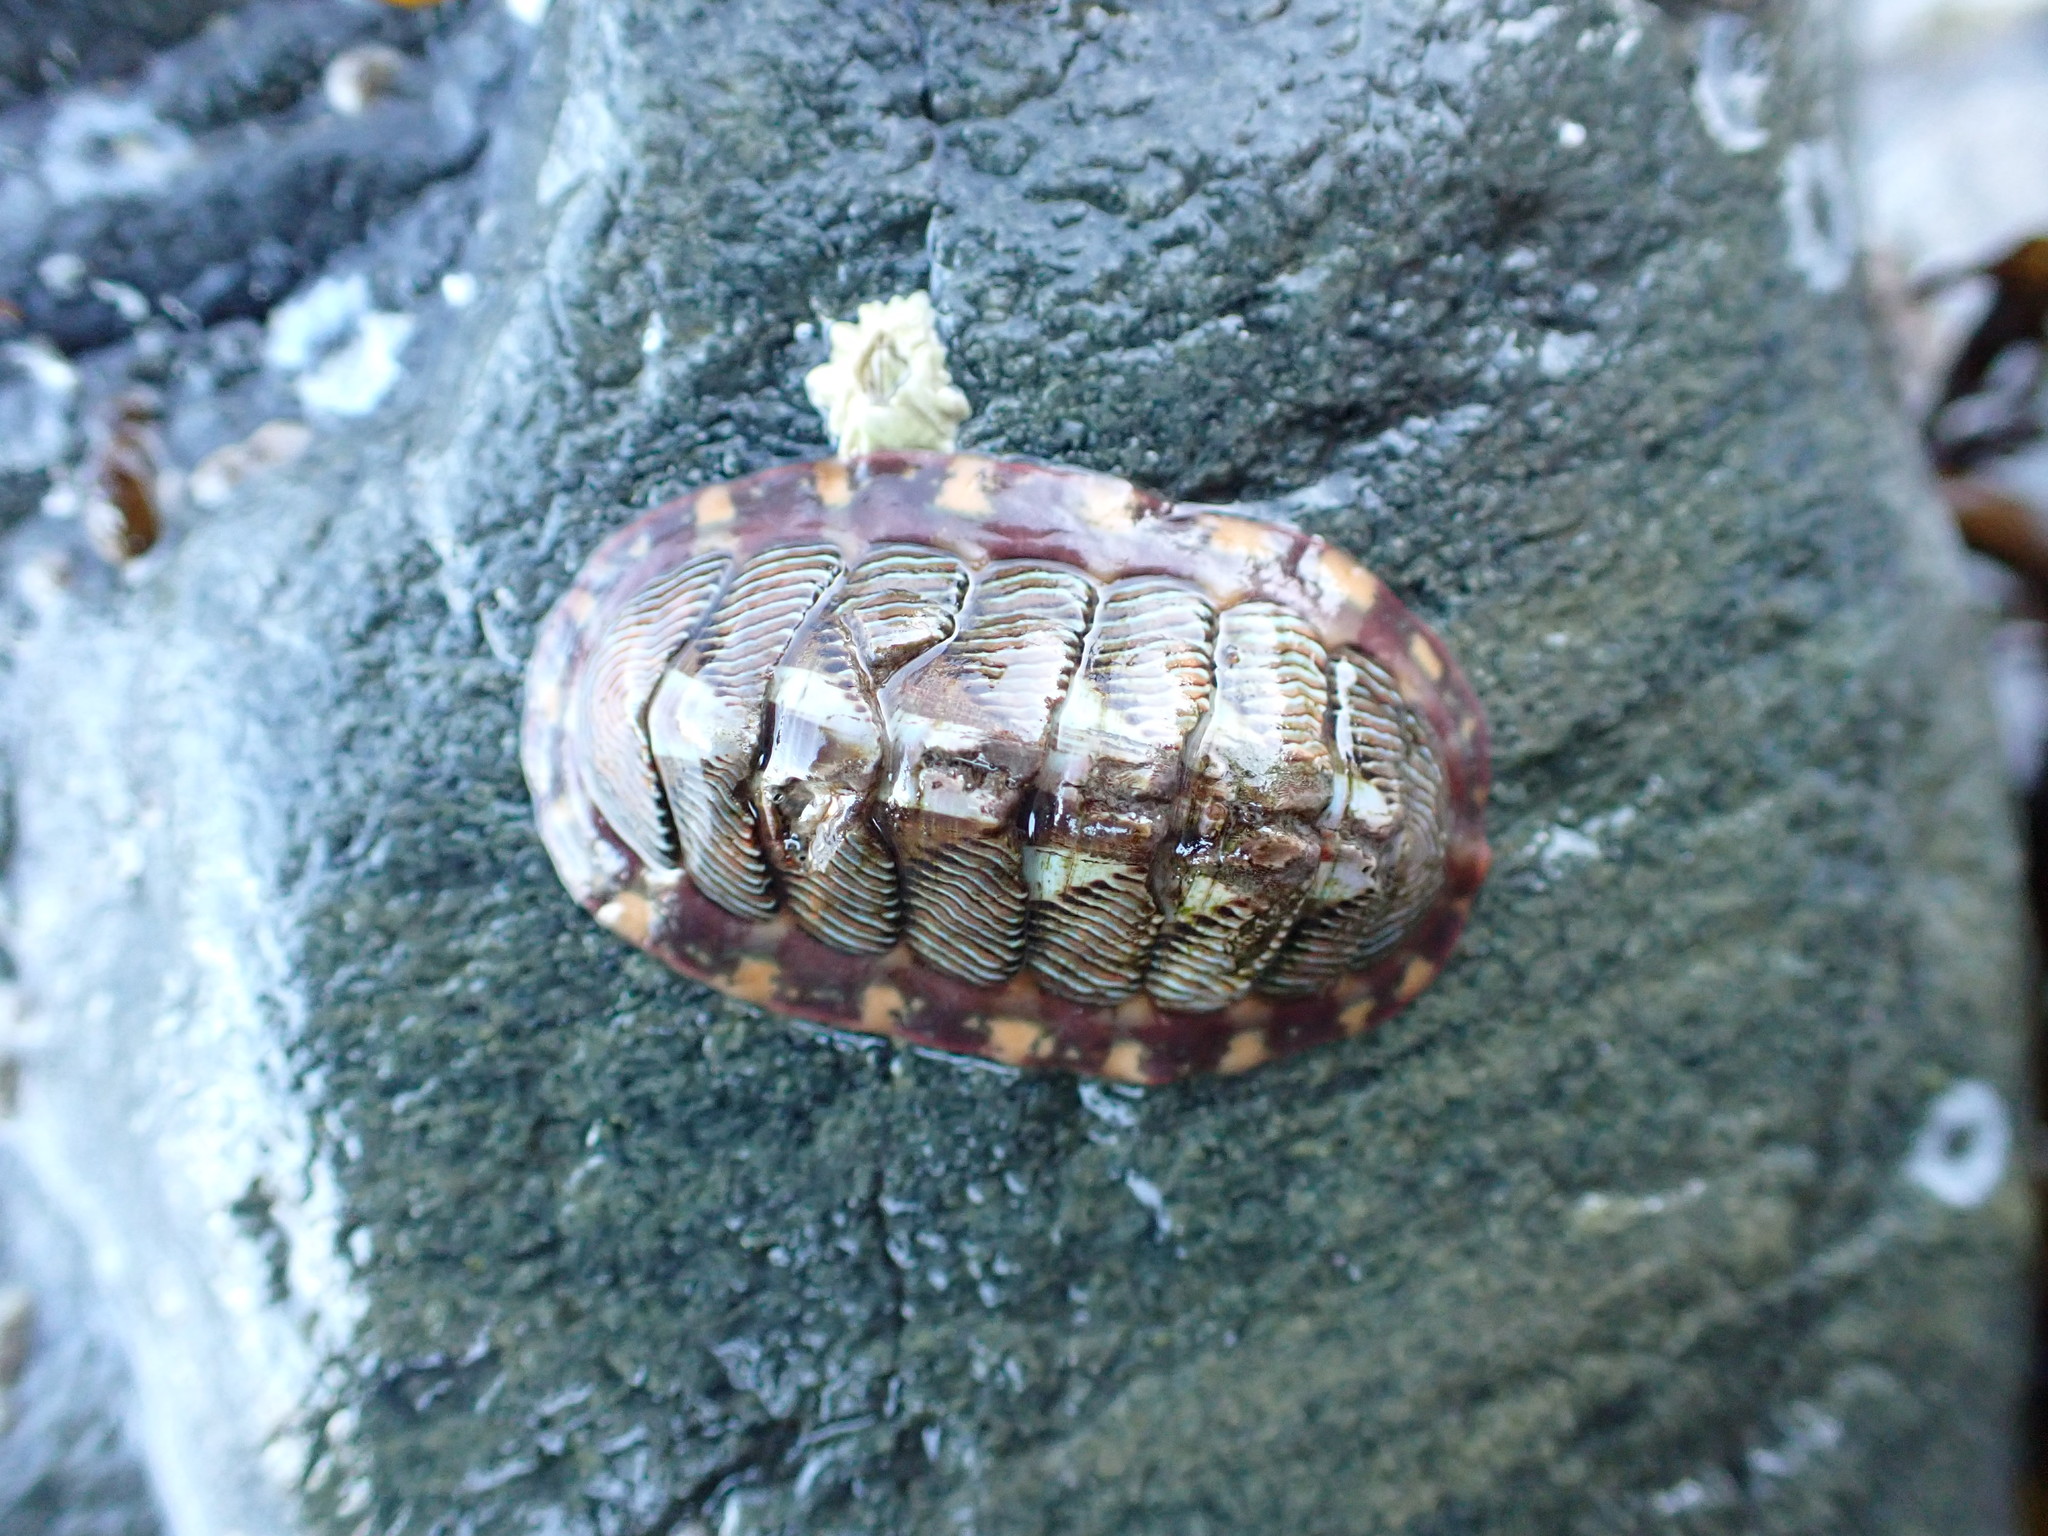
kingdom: Animalia
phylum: Mollusca
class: Polyplacophora
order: Chitonida
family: Tonicellidae
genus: Tonicella
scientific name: Tonicella lineata
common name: Lined chiton
